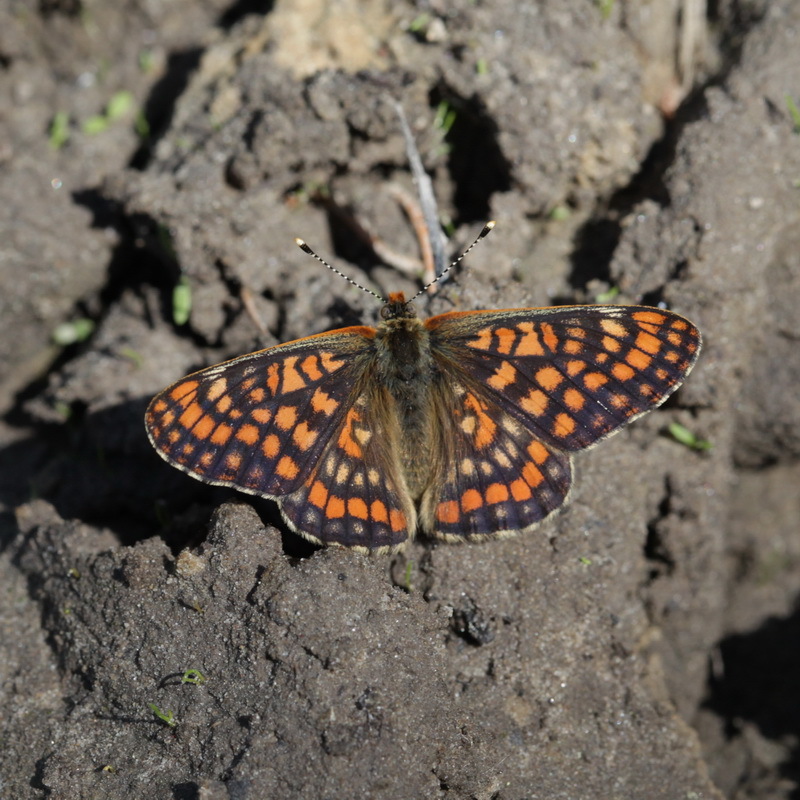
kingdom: Animalia
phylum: Arthropoda
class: Insecta
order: Lepidoptera
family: Nymphalidae
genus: Euphydryas
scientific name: Euphydryas maturna
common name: Scarce fritillary
